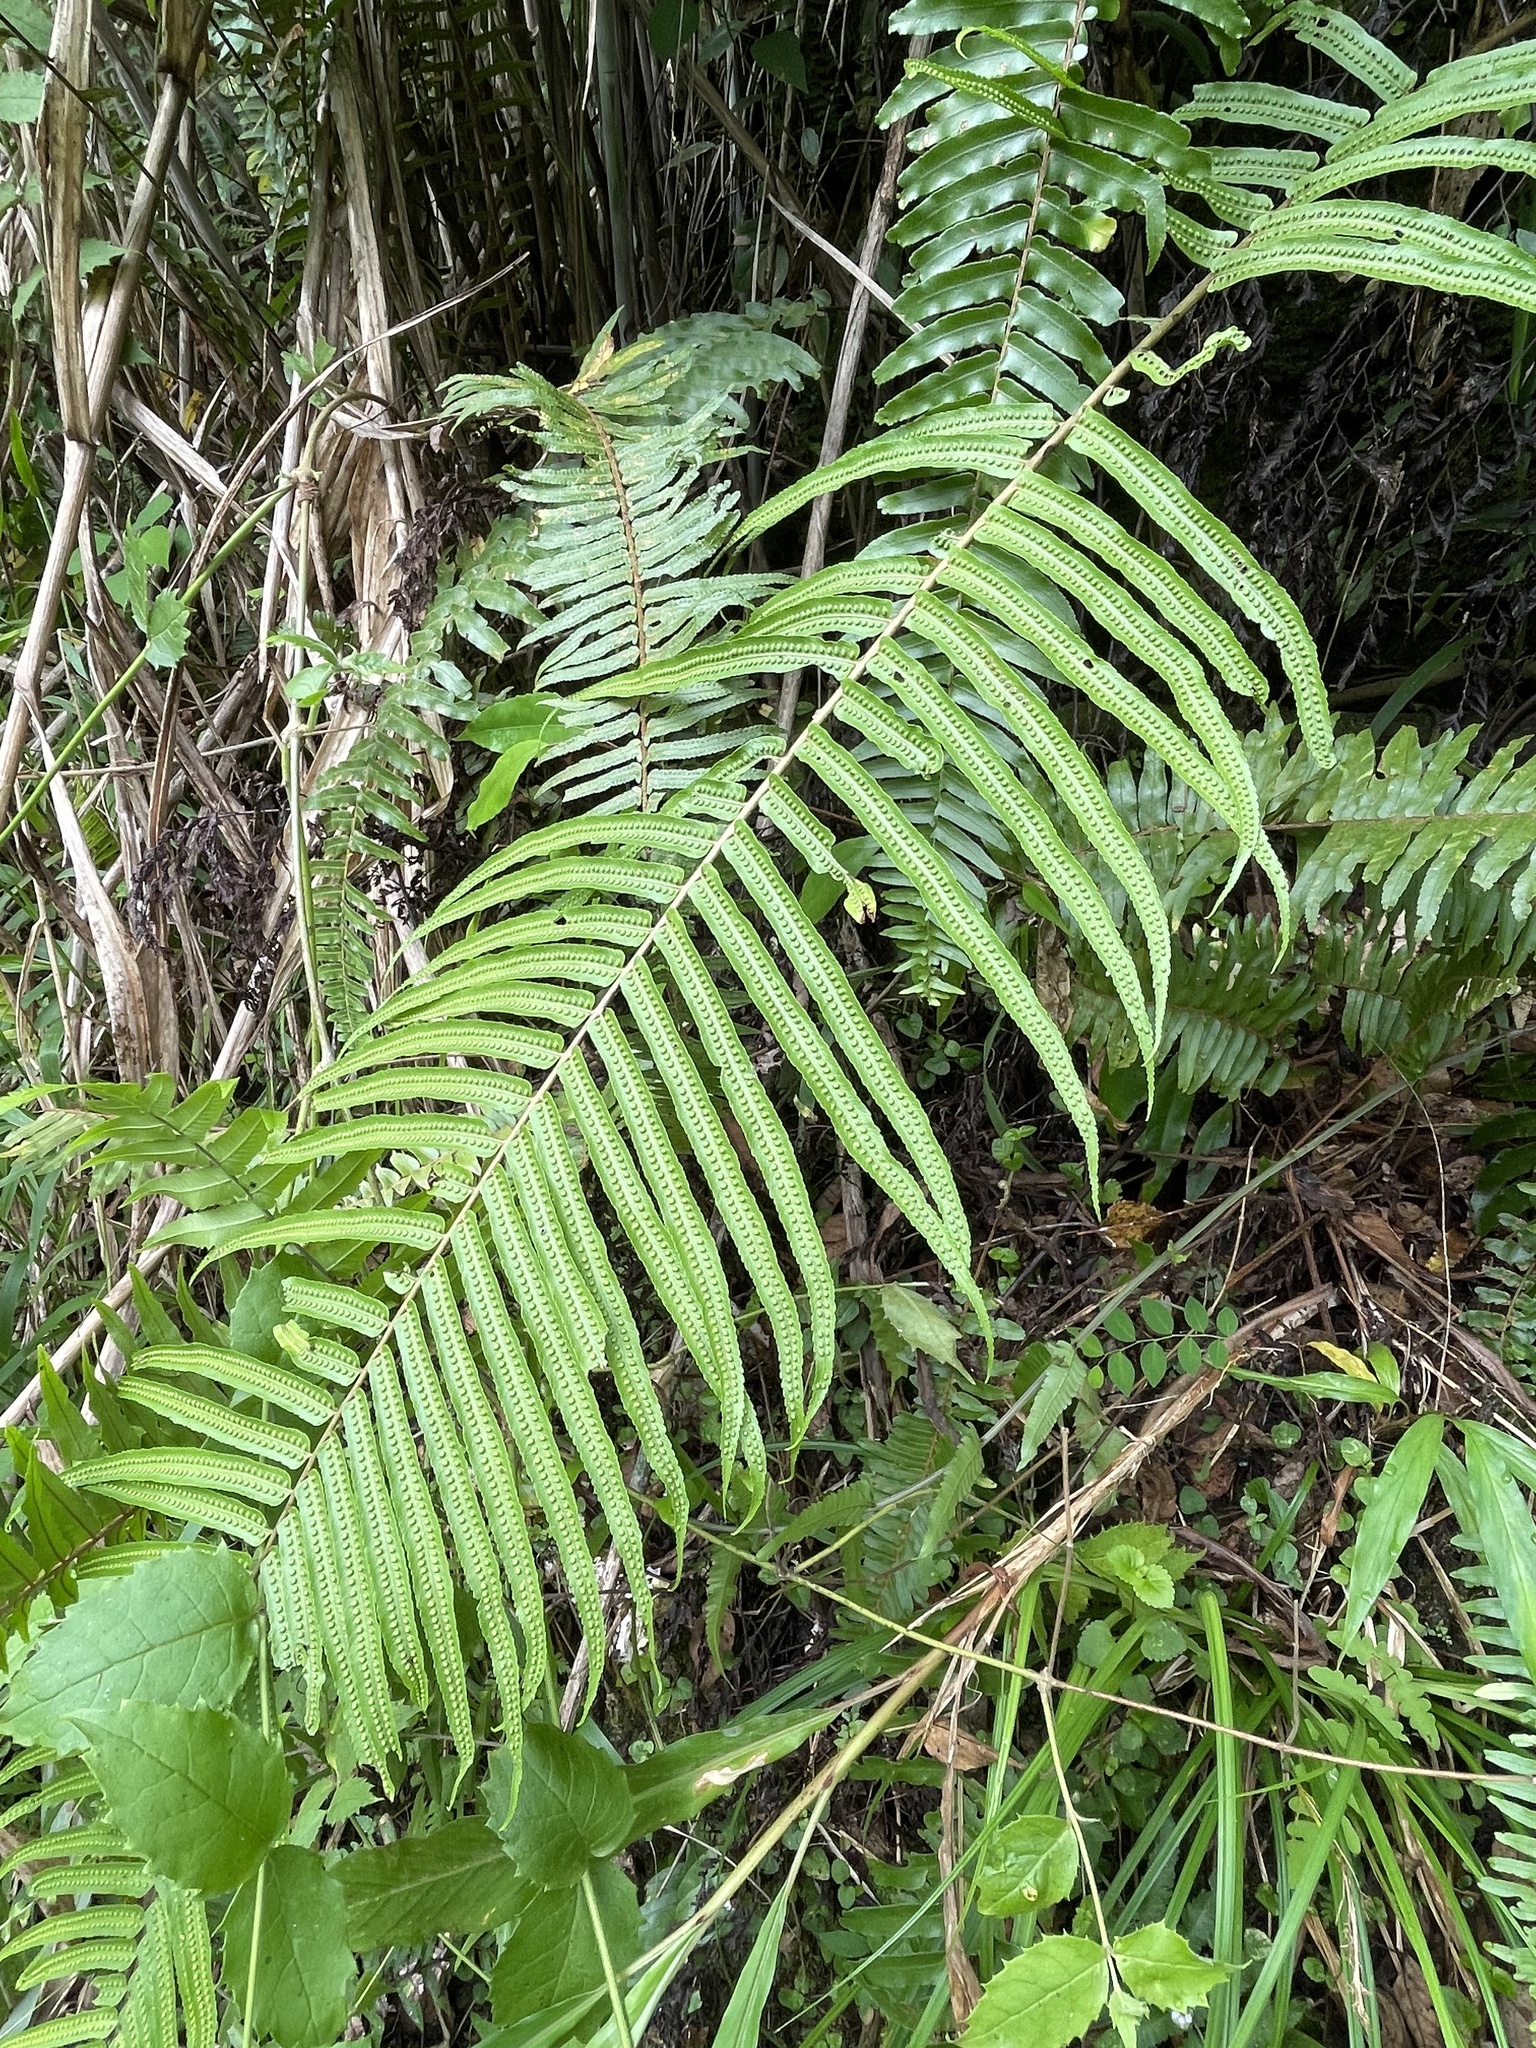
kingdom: Plantae
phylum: Tracheophyta
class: Polypodiopsida
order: Polypodiales
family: Polypodiaceae
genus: Goniophlebium
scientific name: Goniophlebium subauriculatum
